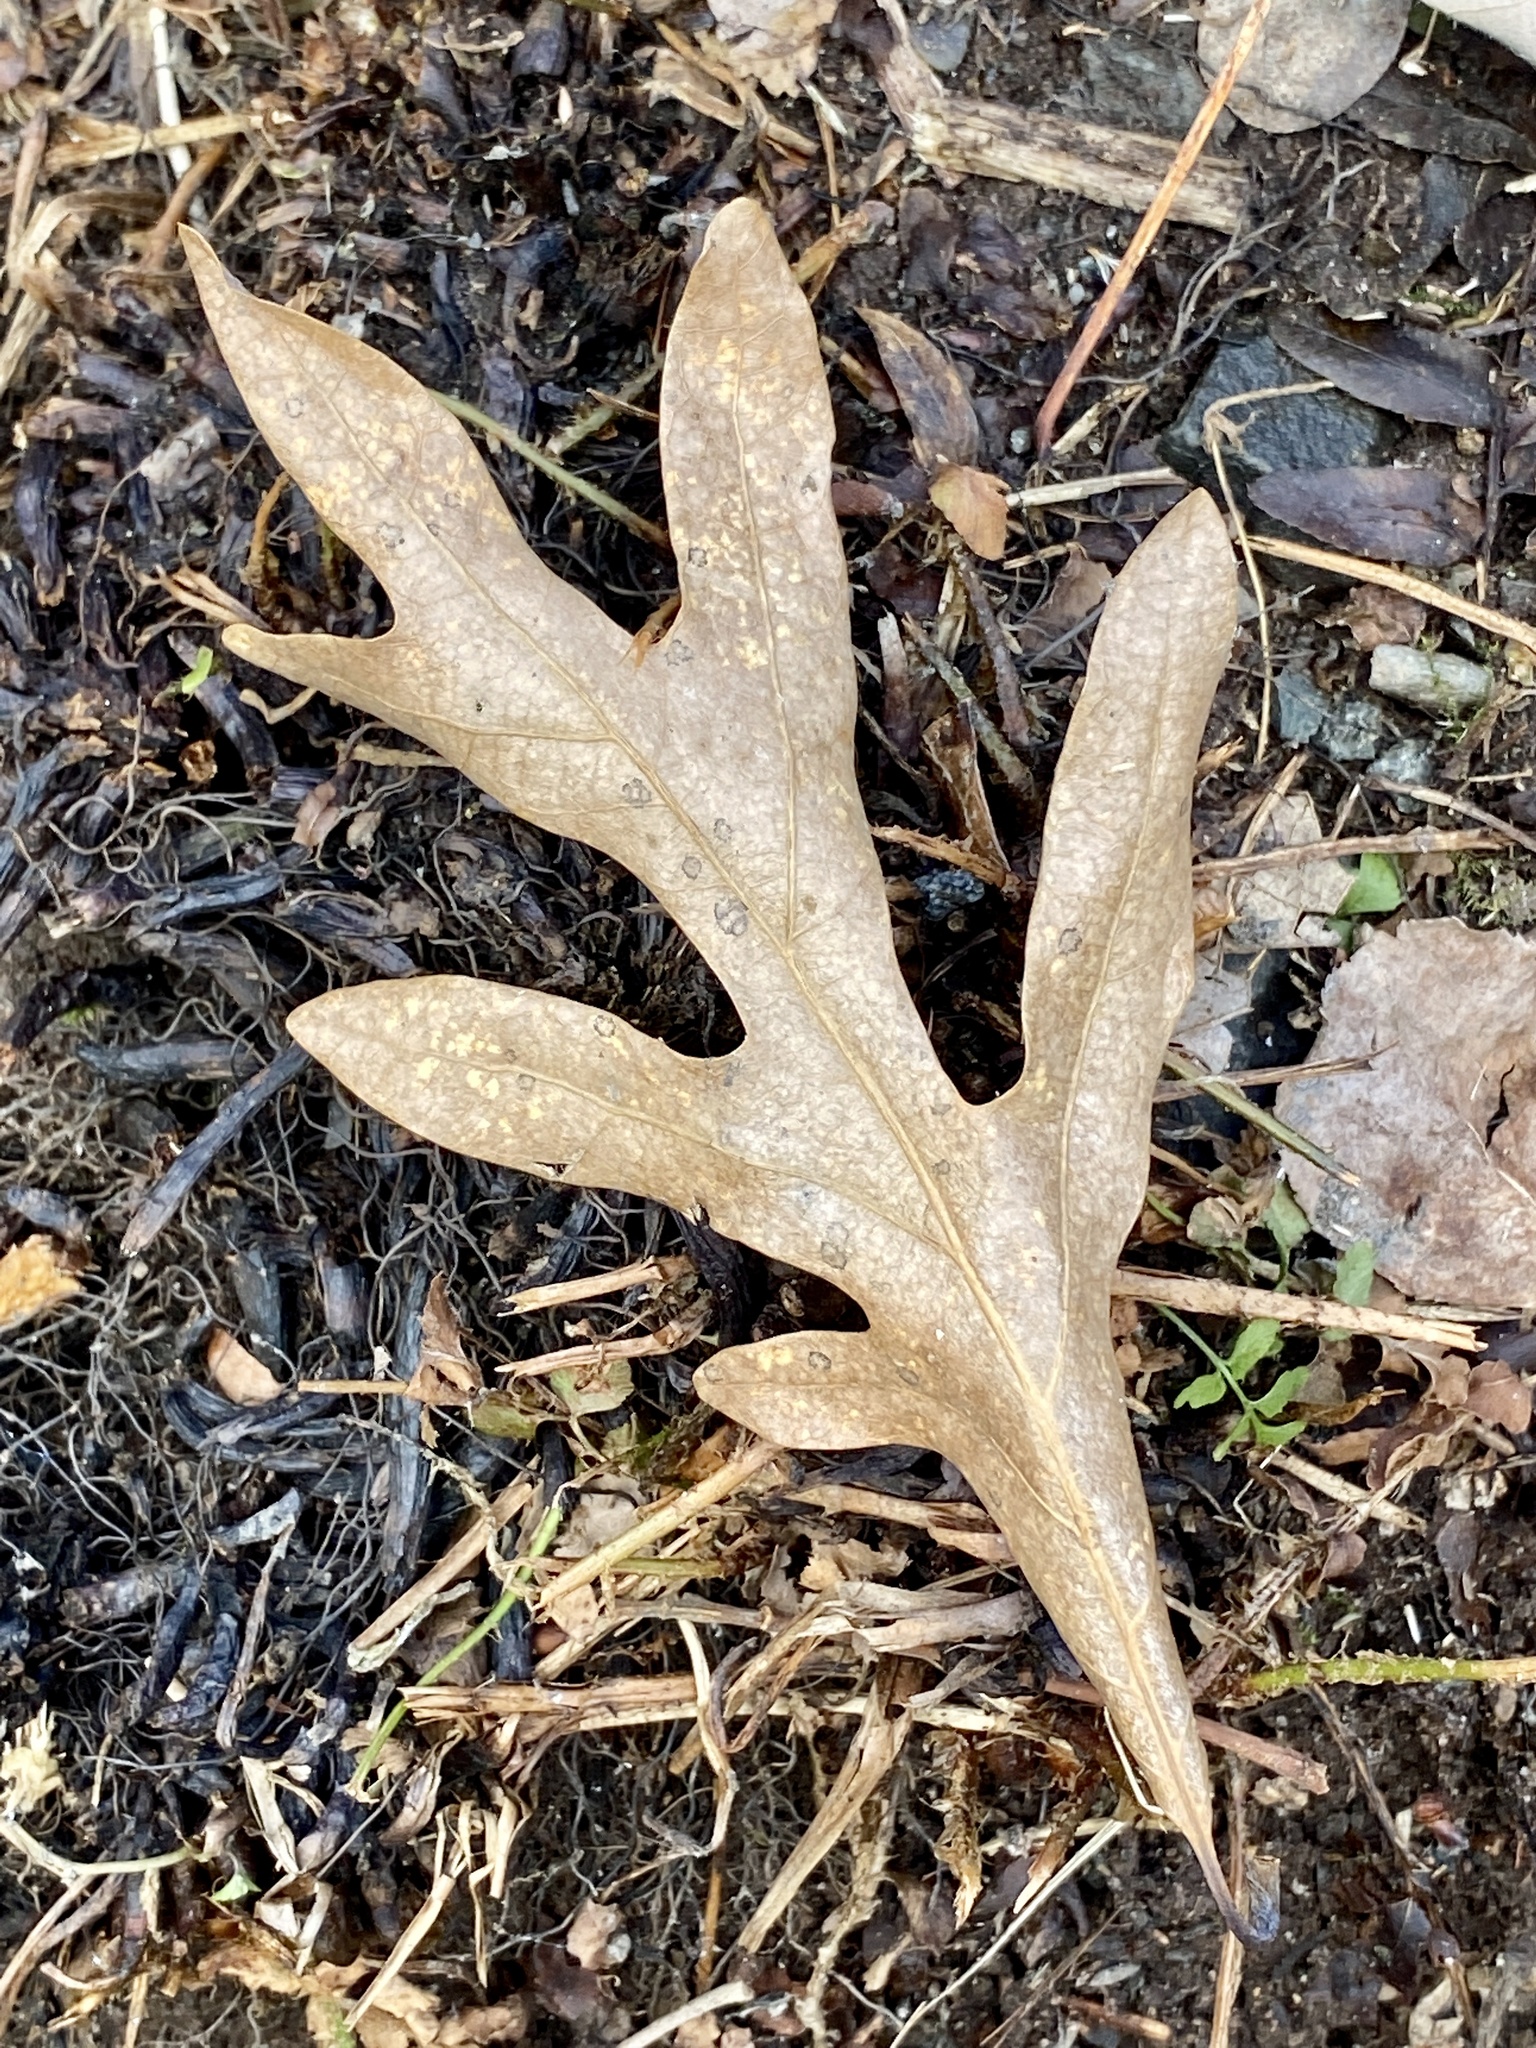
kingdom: Plantae
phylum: Tracheophyta
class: Magnoliopsida
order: Fagales
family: Fagaceae
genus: Quercus
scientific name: Quercus alba
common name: White oak
